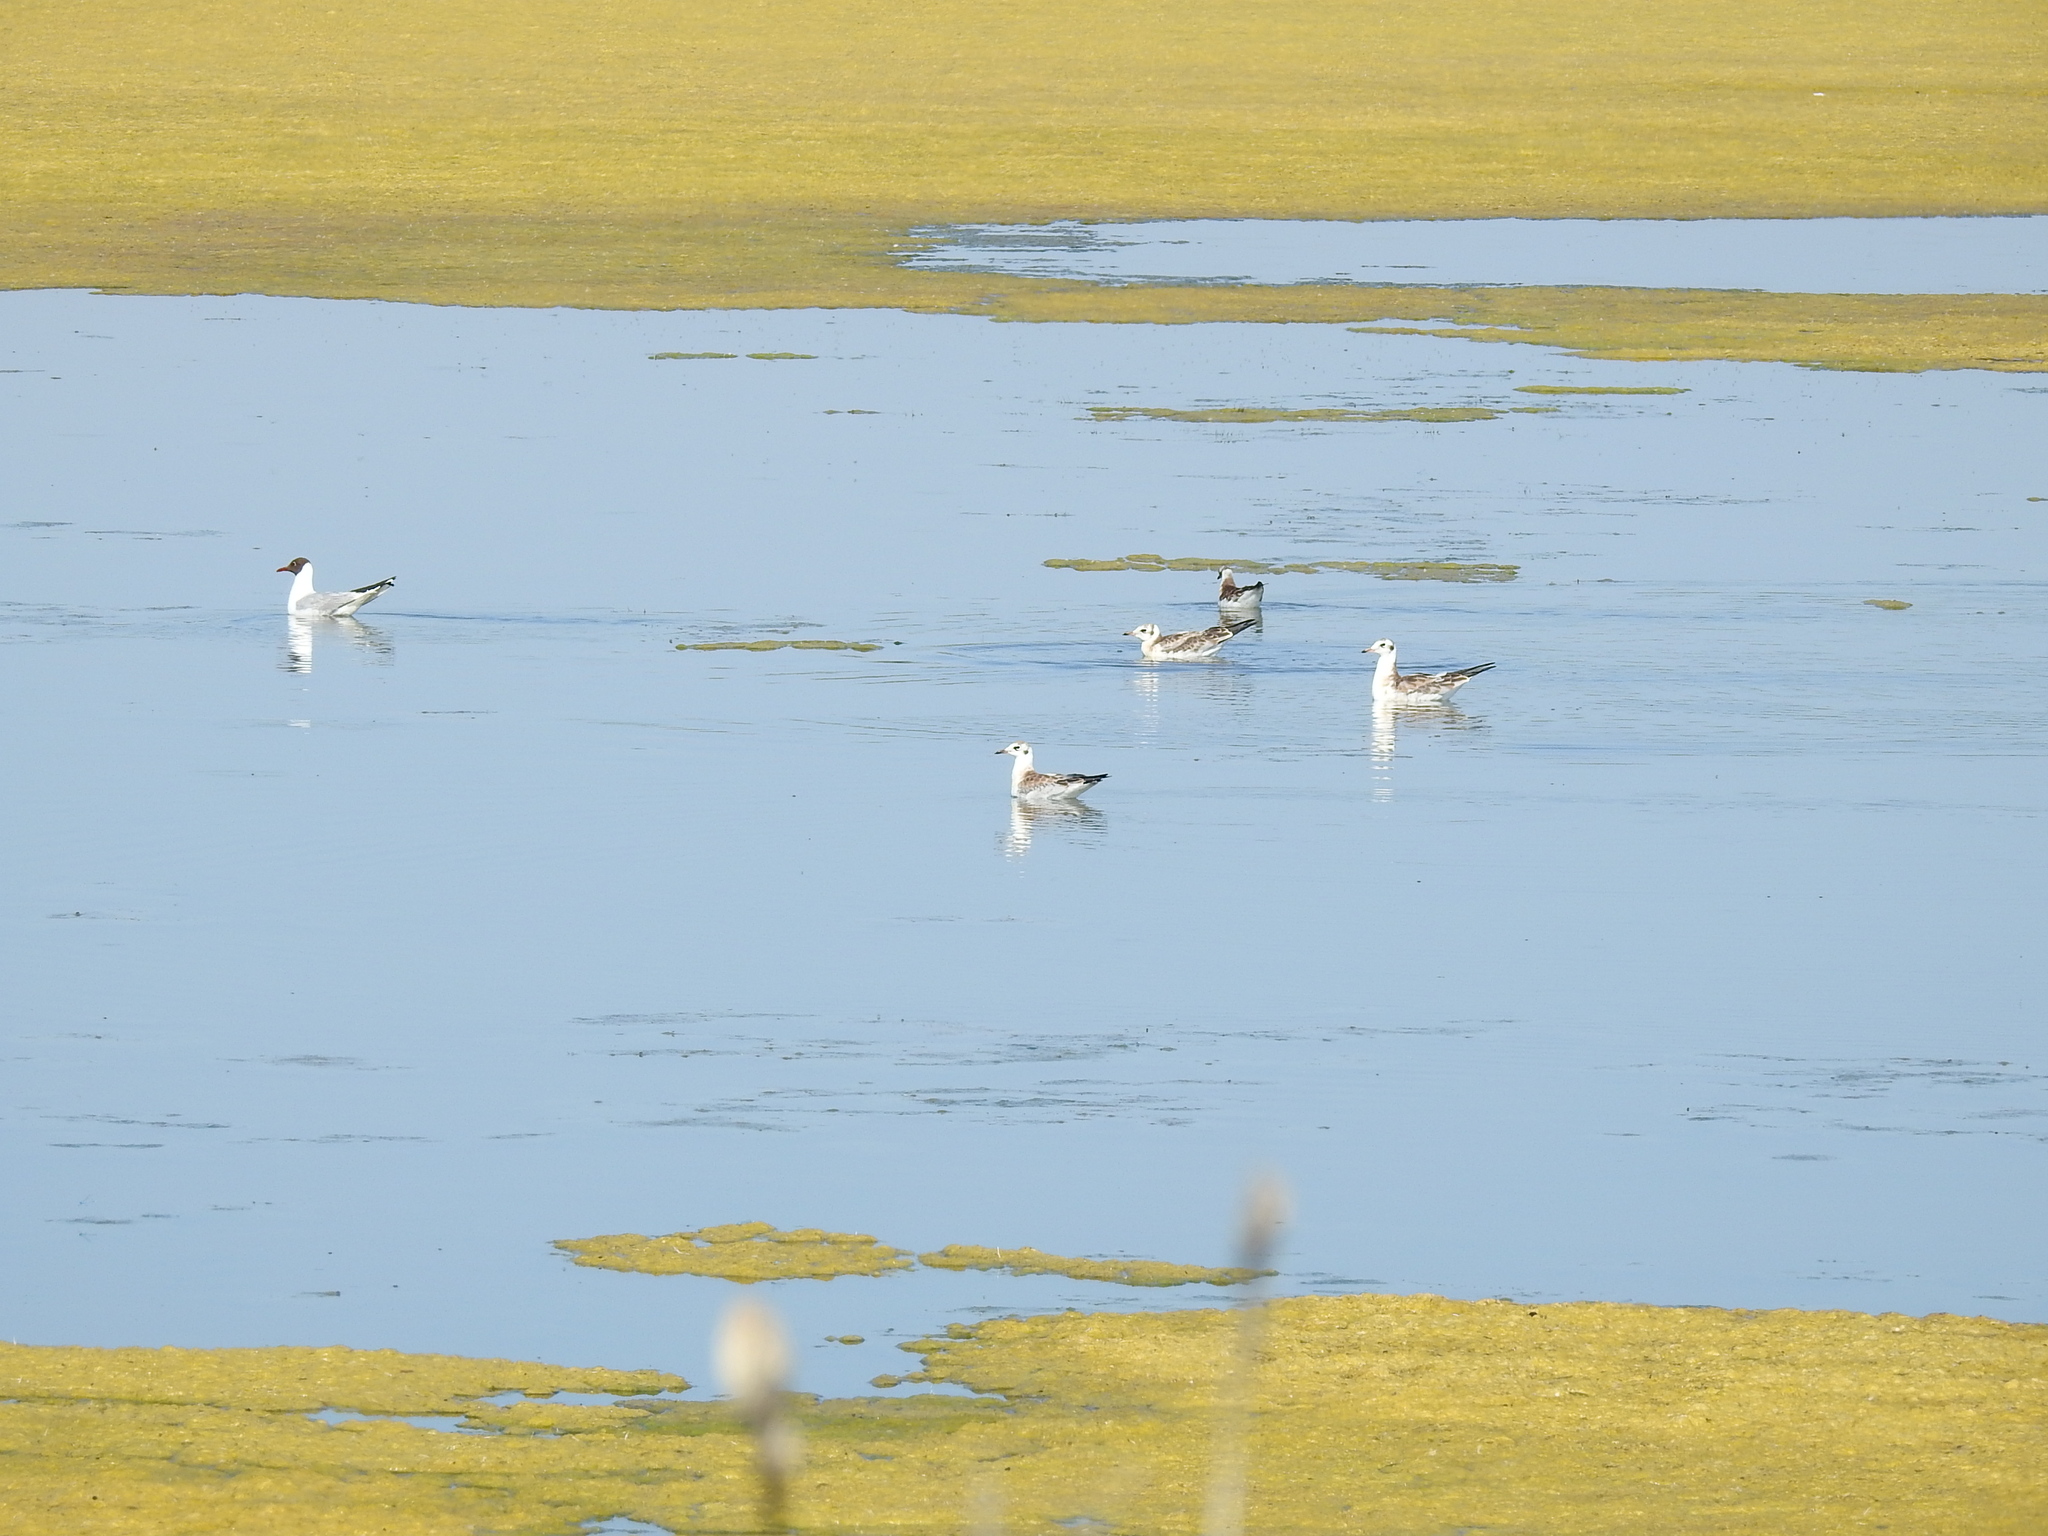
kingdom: Animalia
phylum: Chordata
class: Aves
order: Charadriiformes
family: Laridae
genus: Chroicocephalus
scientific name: Chroicocephalus ridibundus
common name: Black-headed gull
